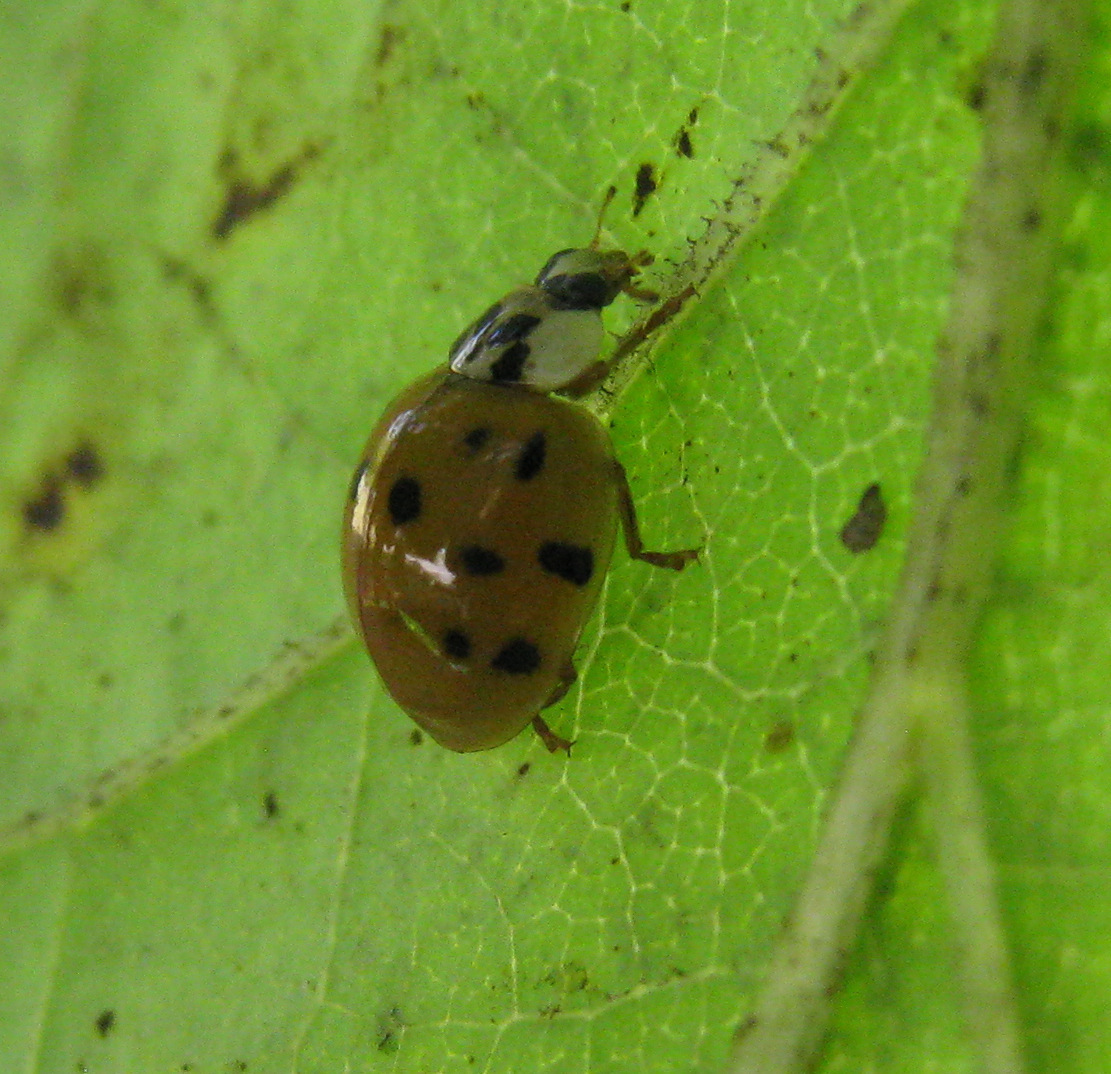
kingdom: Animalia
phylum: Arthropoda
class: Insecta
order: Coleoptera
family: Coccinellidae
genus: Harmonia
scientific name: Harmonia axyridis
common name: Harlequin ladybird
